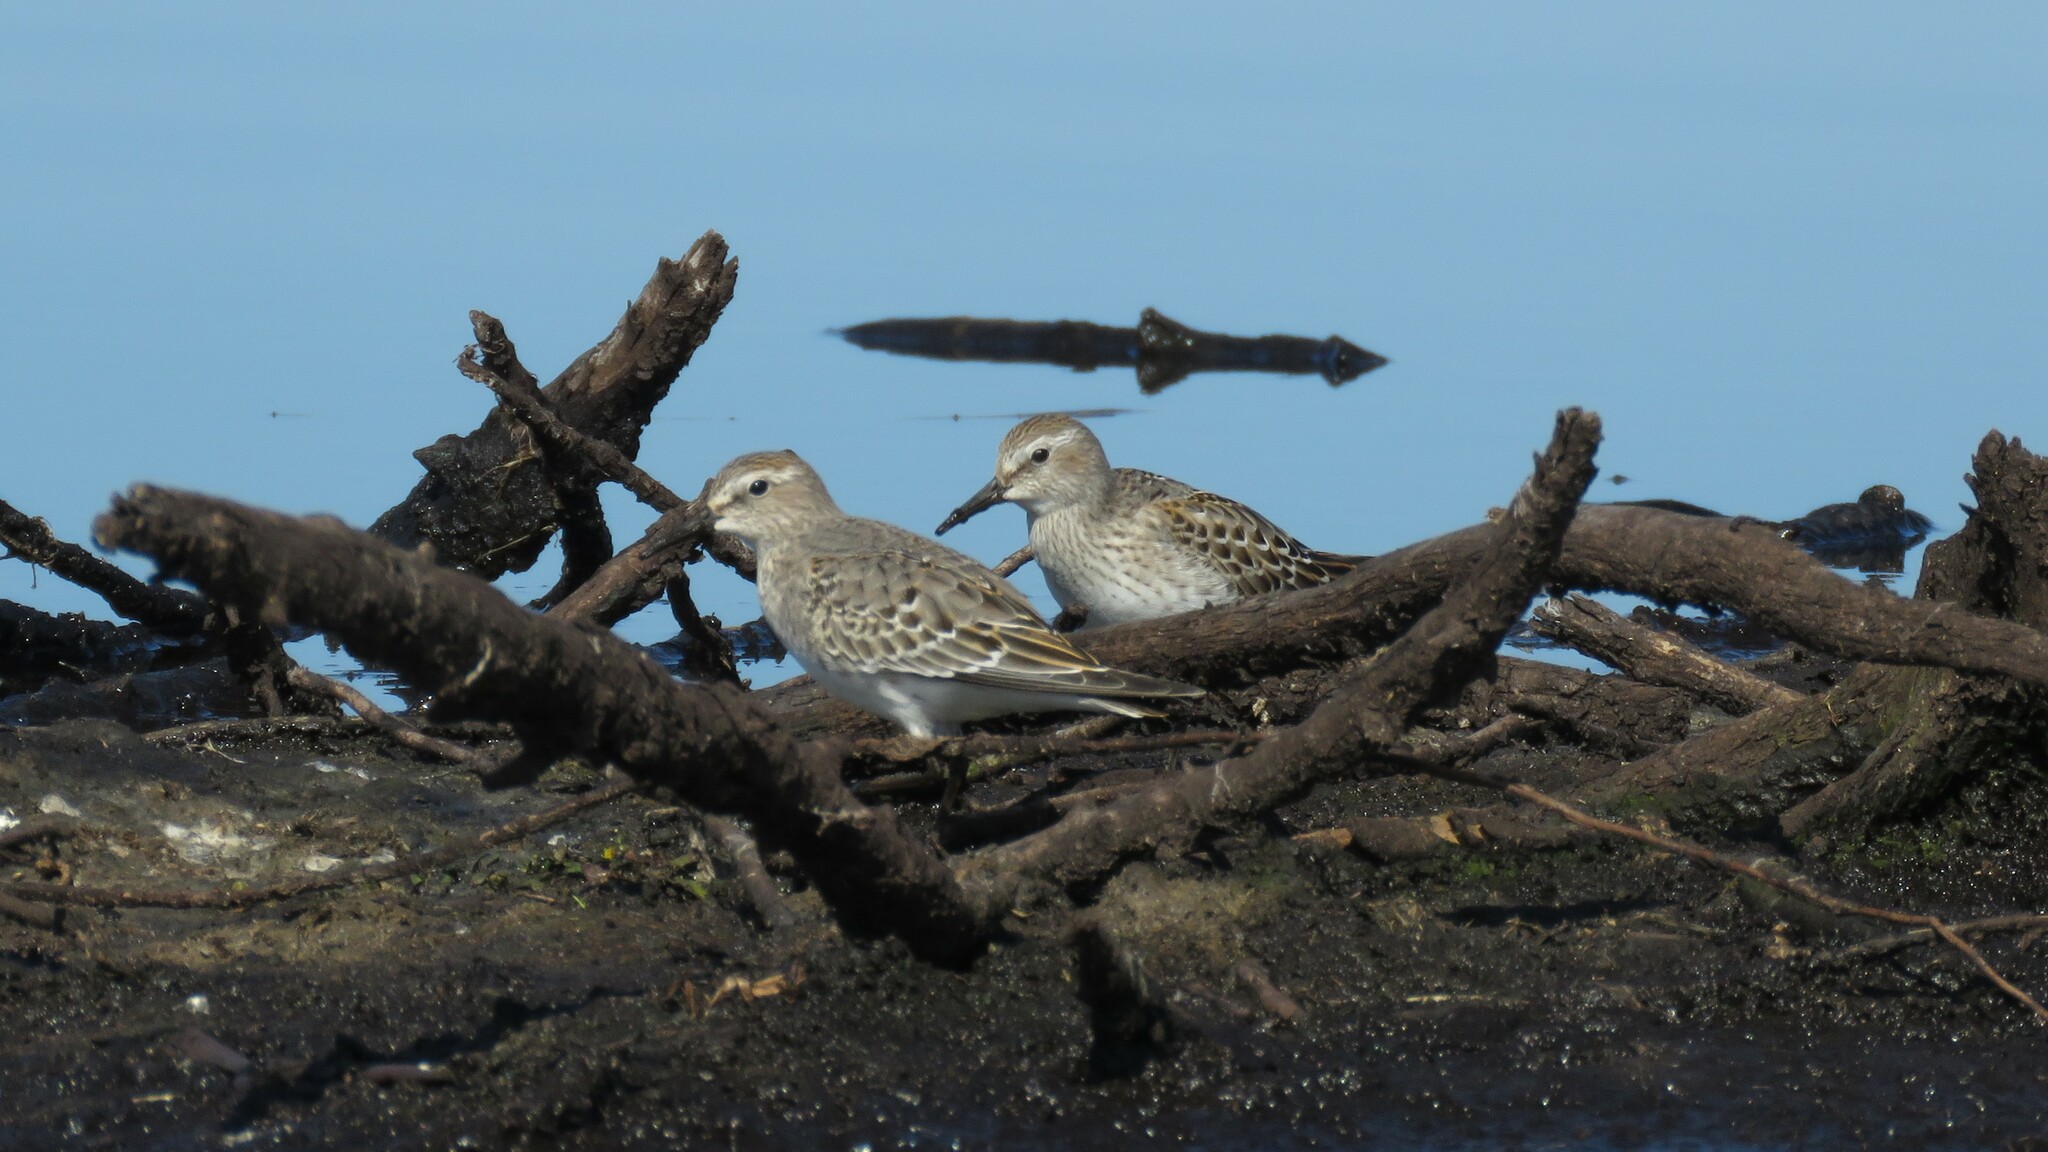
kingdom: Animalia
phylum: Chordata
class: Aves
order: Charadriiformes
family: Scolopacidae
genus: Calidris
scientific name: Calidris fuscicollis
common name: White-rumped sandpiper
